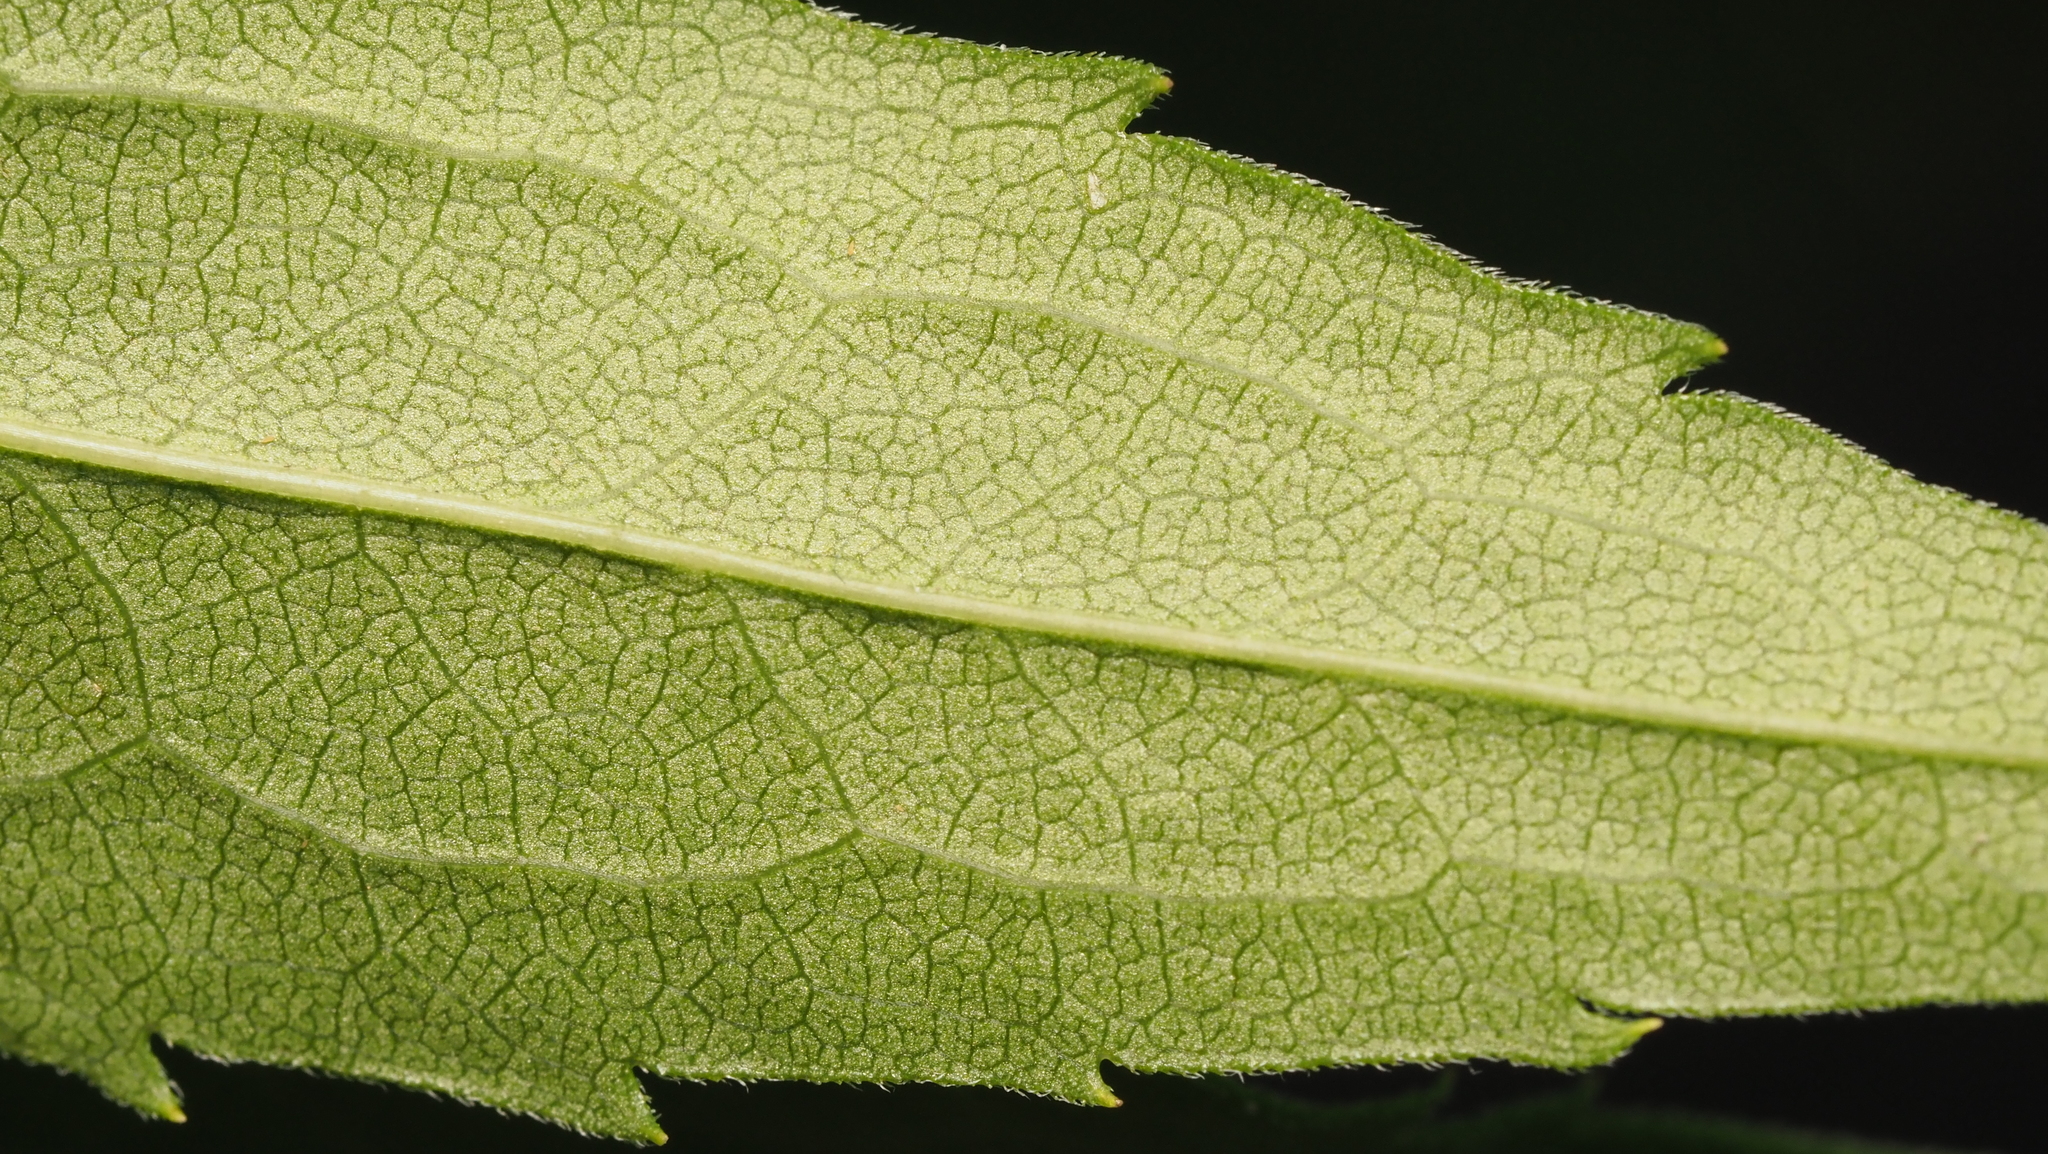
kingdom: Plantae
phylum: Tracheophyta
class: Magnoliopsida
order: Asterales
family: Asteraceae
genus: Solidago
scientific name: Solidago gigantea
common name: Giant goldenrod
